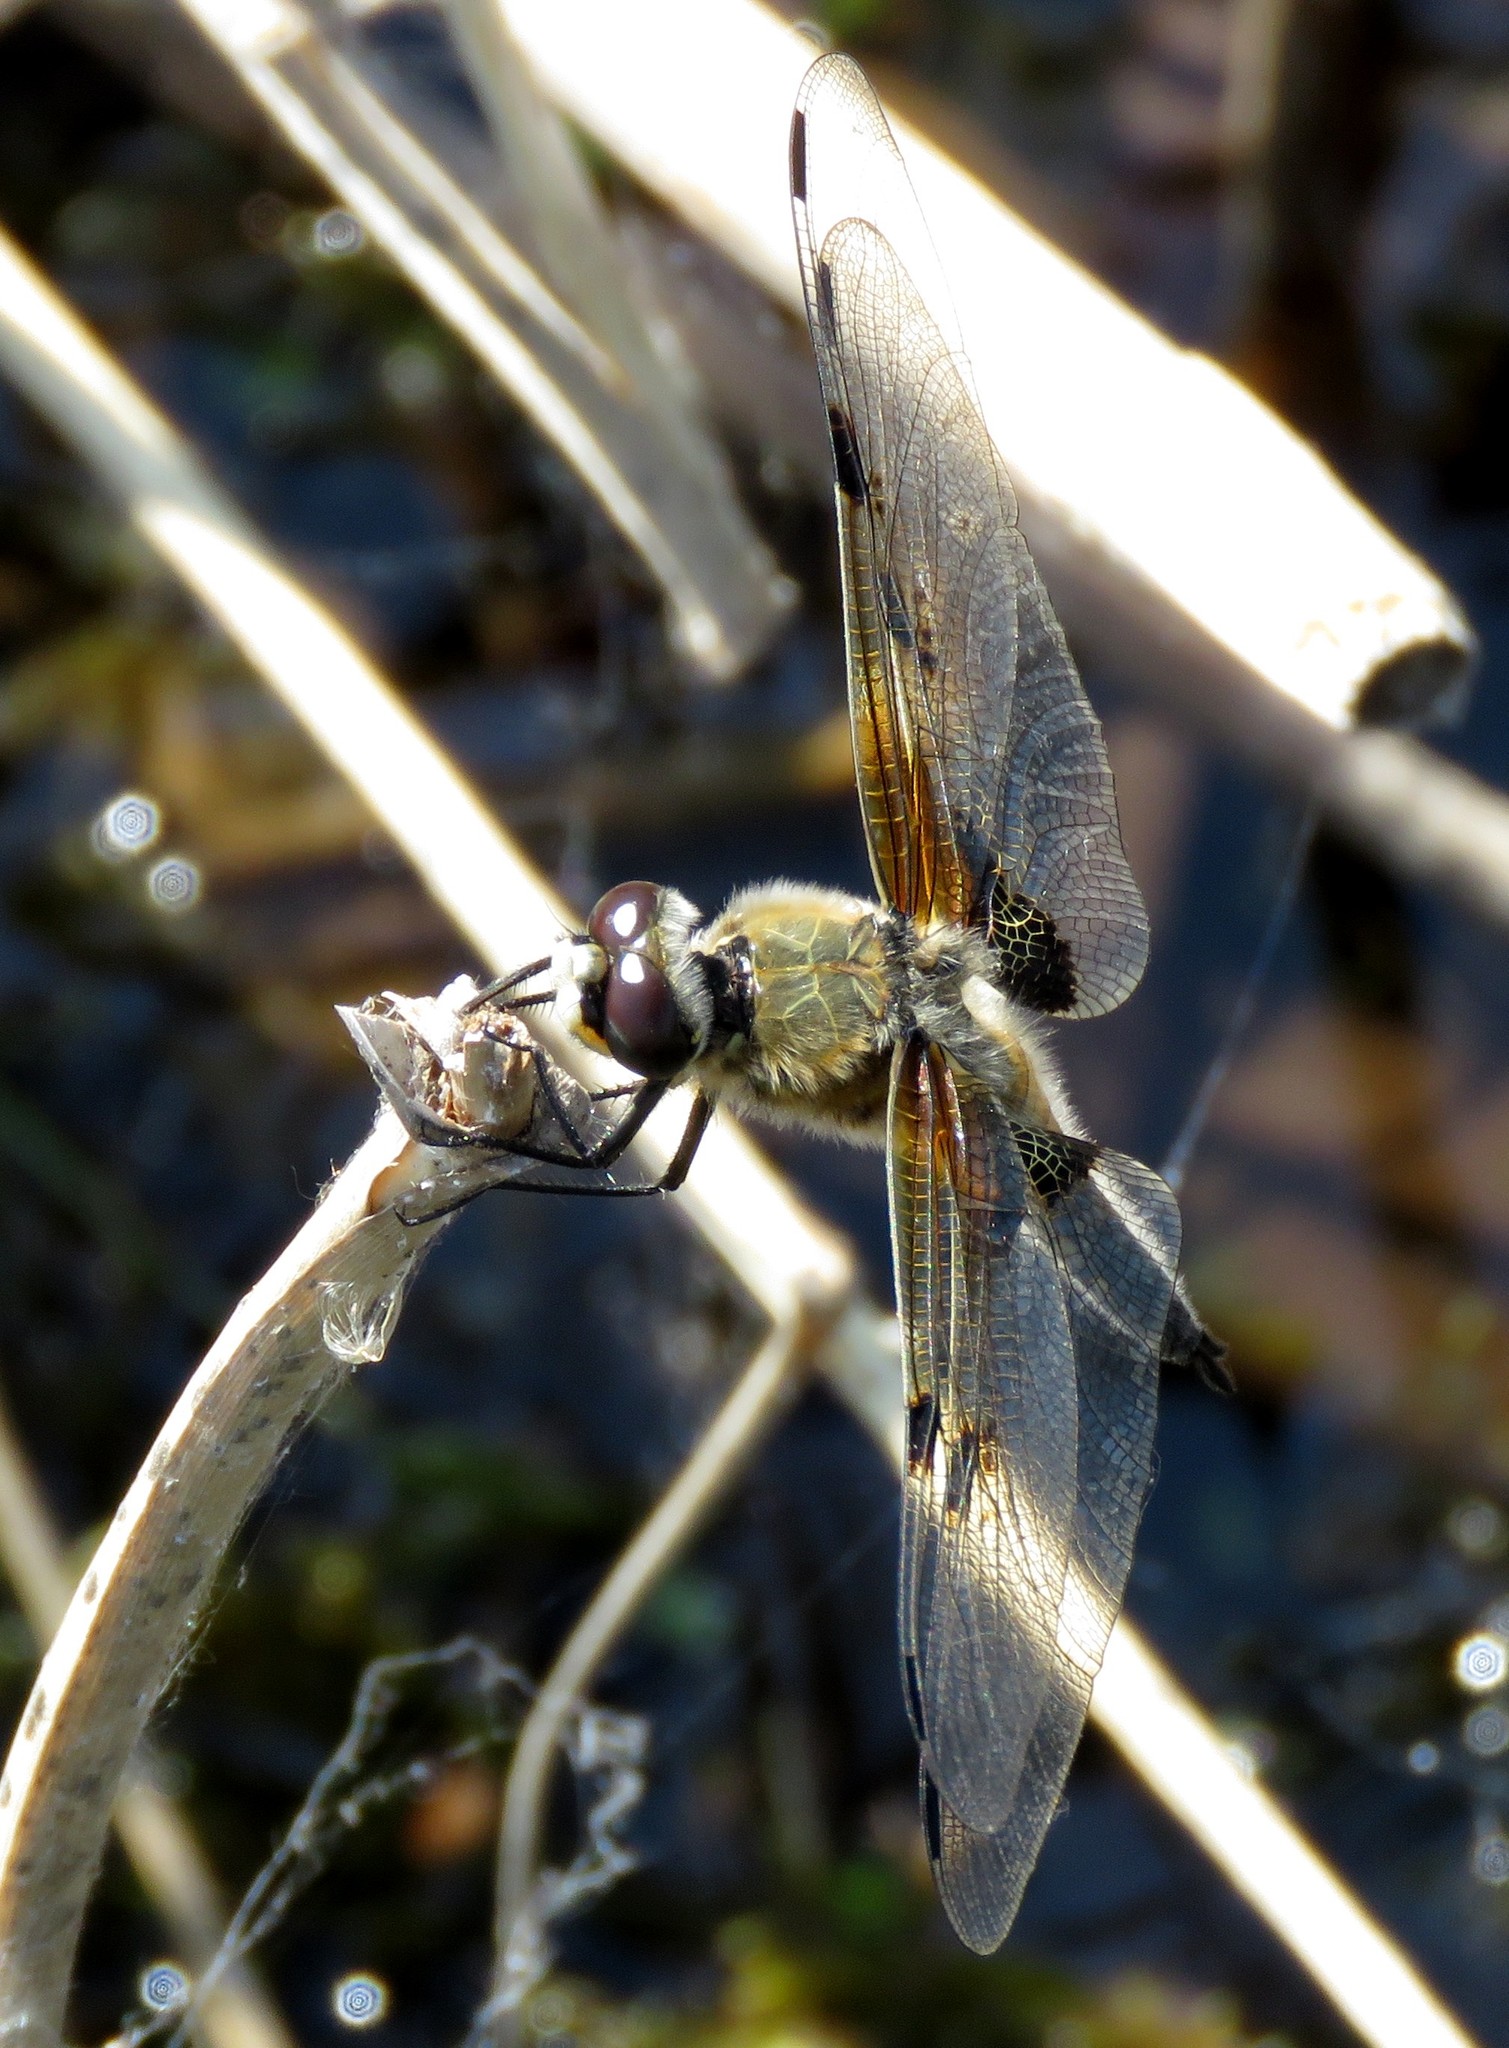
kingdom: Animalia
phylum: Arthropoda
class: Insecta
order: Odonata
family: Libellulidae
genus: Libellula
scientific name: Libellula quadrimaculata
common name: Four-spotted chaser
